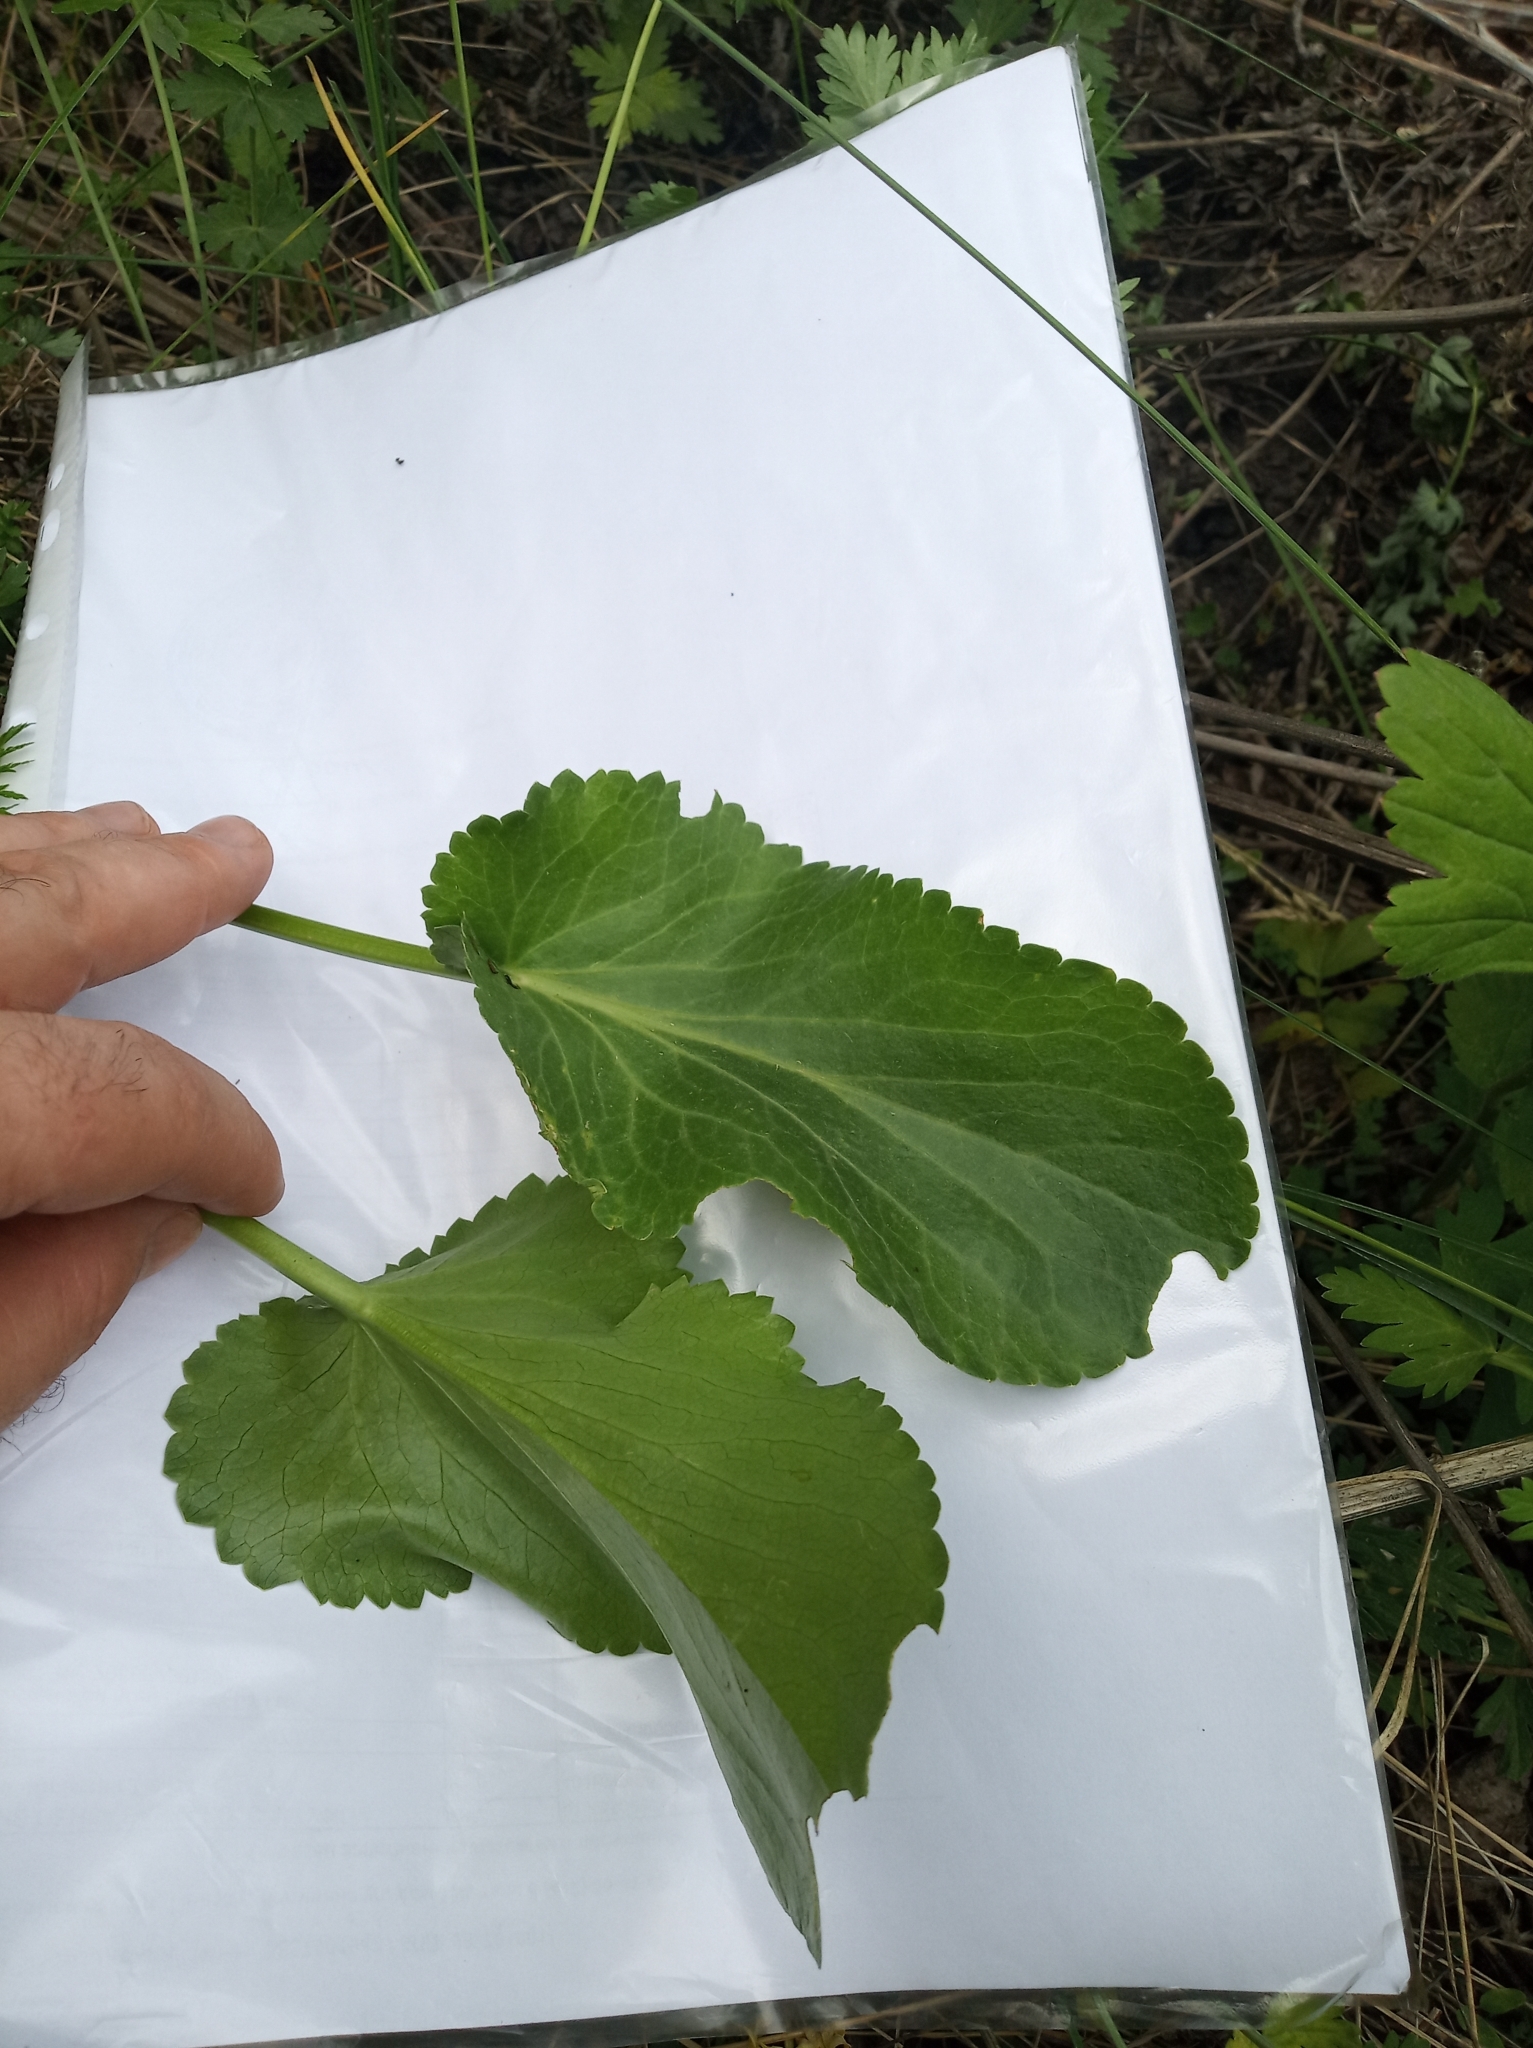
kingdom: Plantae
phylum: Tracheophyta
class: Magnoliopsida
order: Apiales
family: Apiaceae
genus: Eryngium
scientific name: Eryngium planum
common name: Blue eryngo
